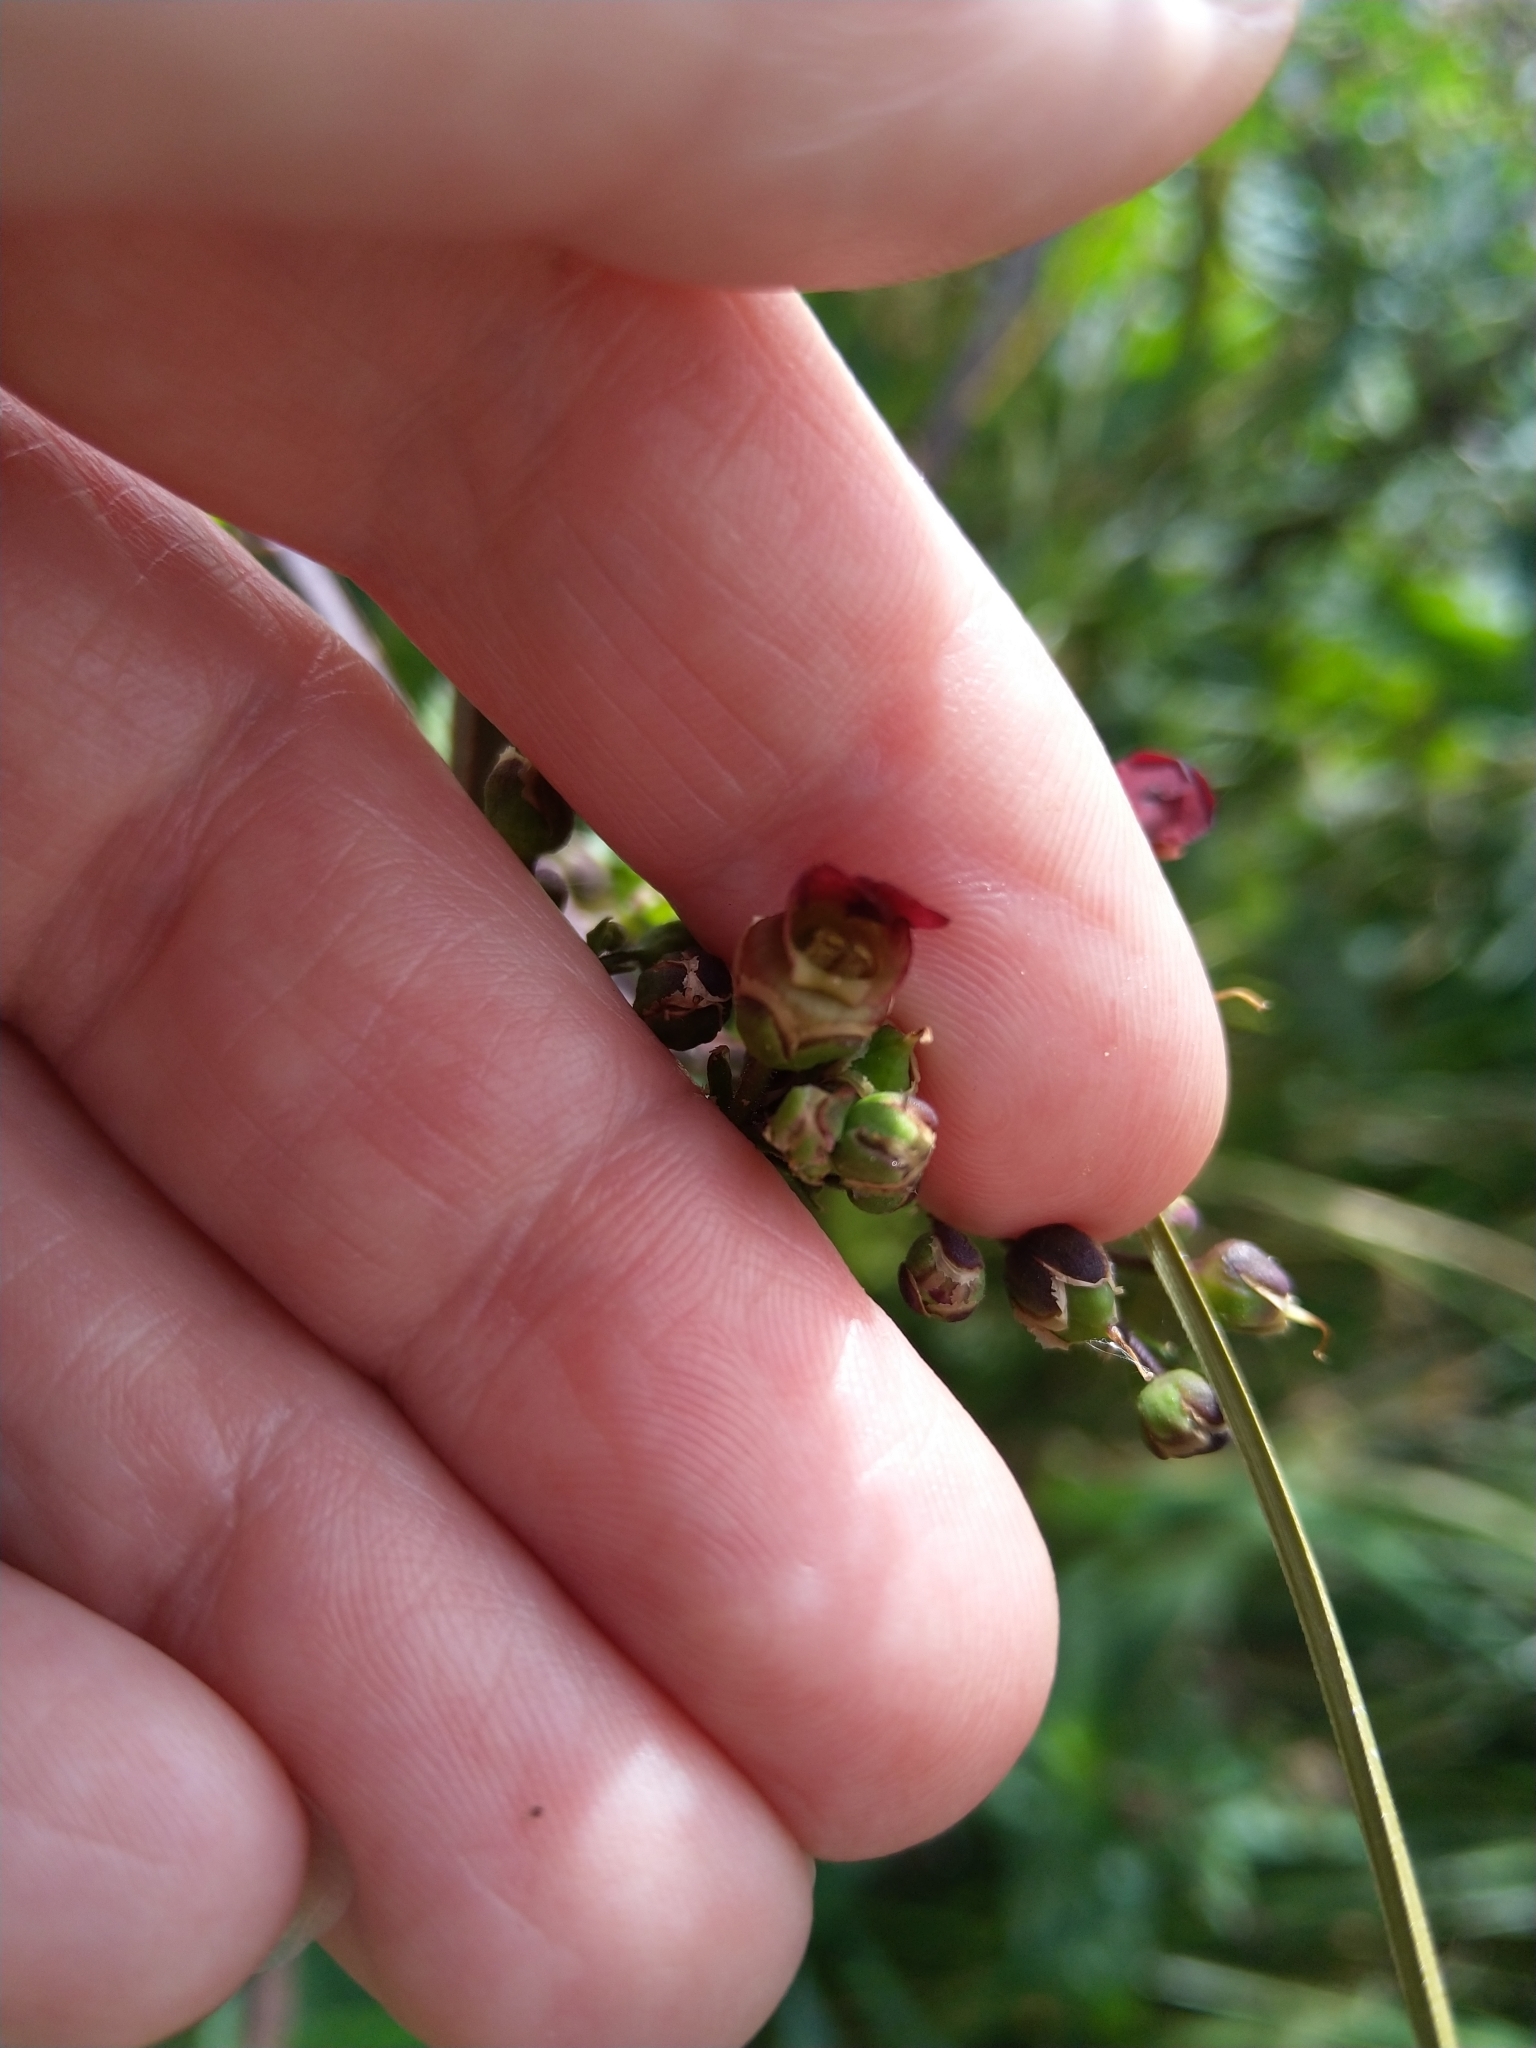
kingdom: Plantae
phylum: Tracheophyta
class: Magnoliopsida
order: Lamiales
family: Scrophulariaceae
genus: Scrophularia
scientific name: Scrophularia auriculata
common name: Water betony
